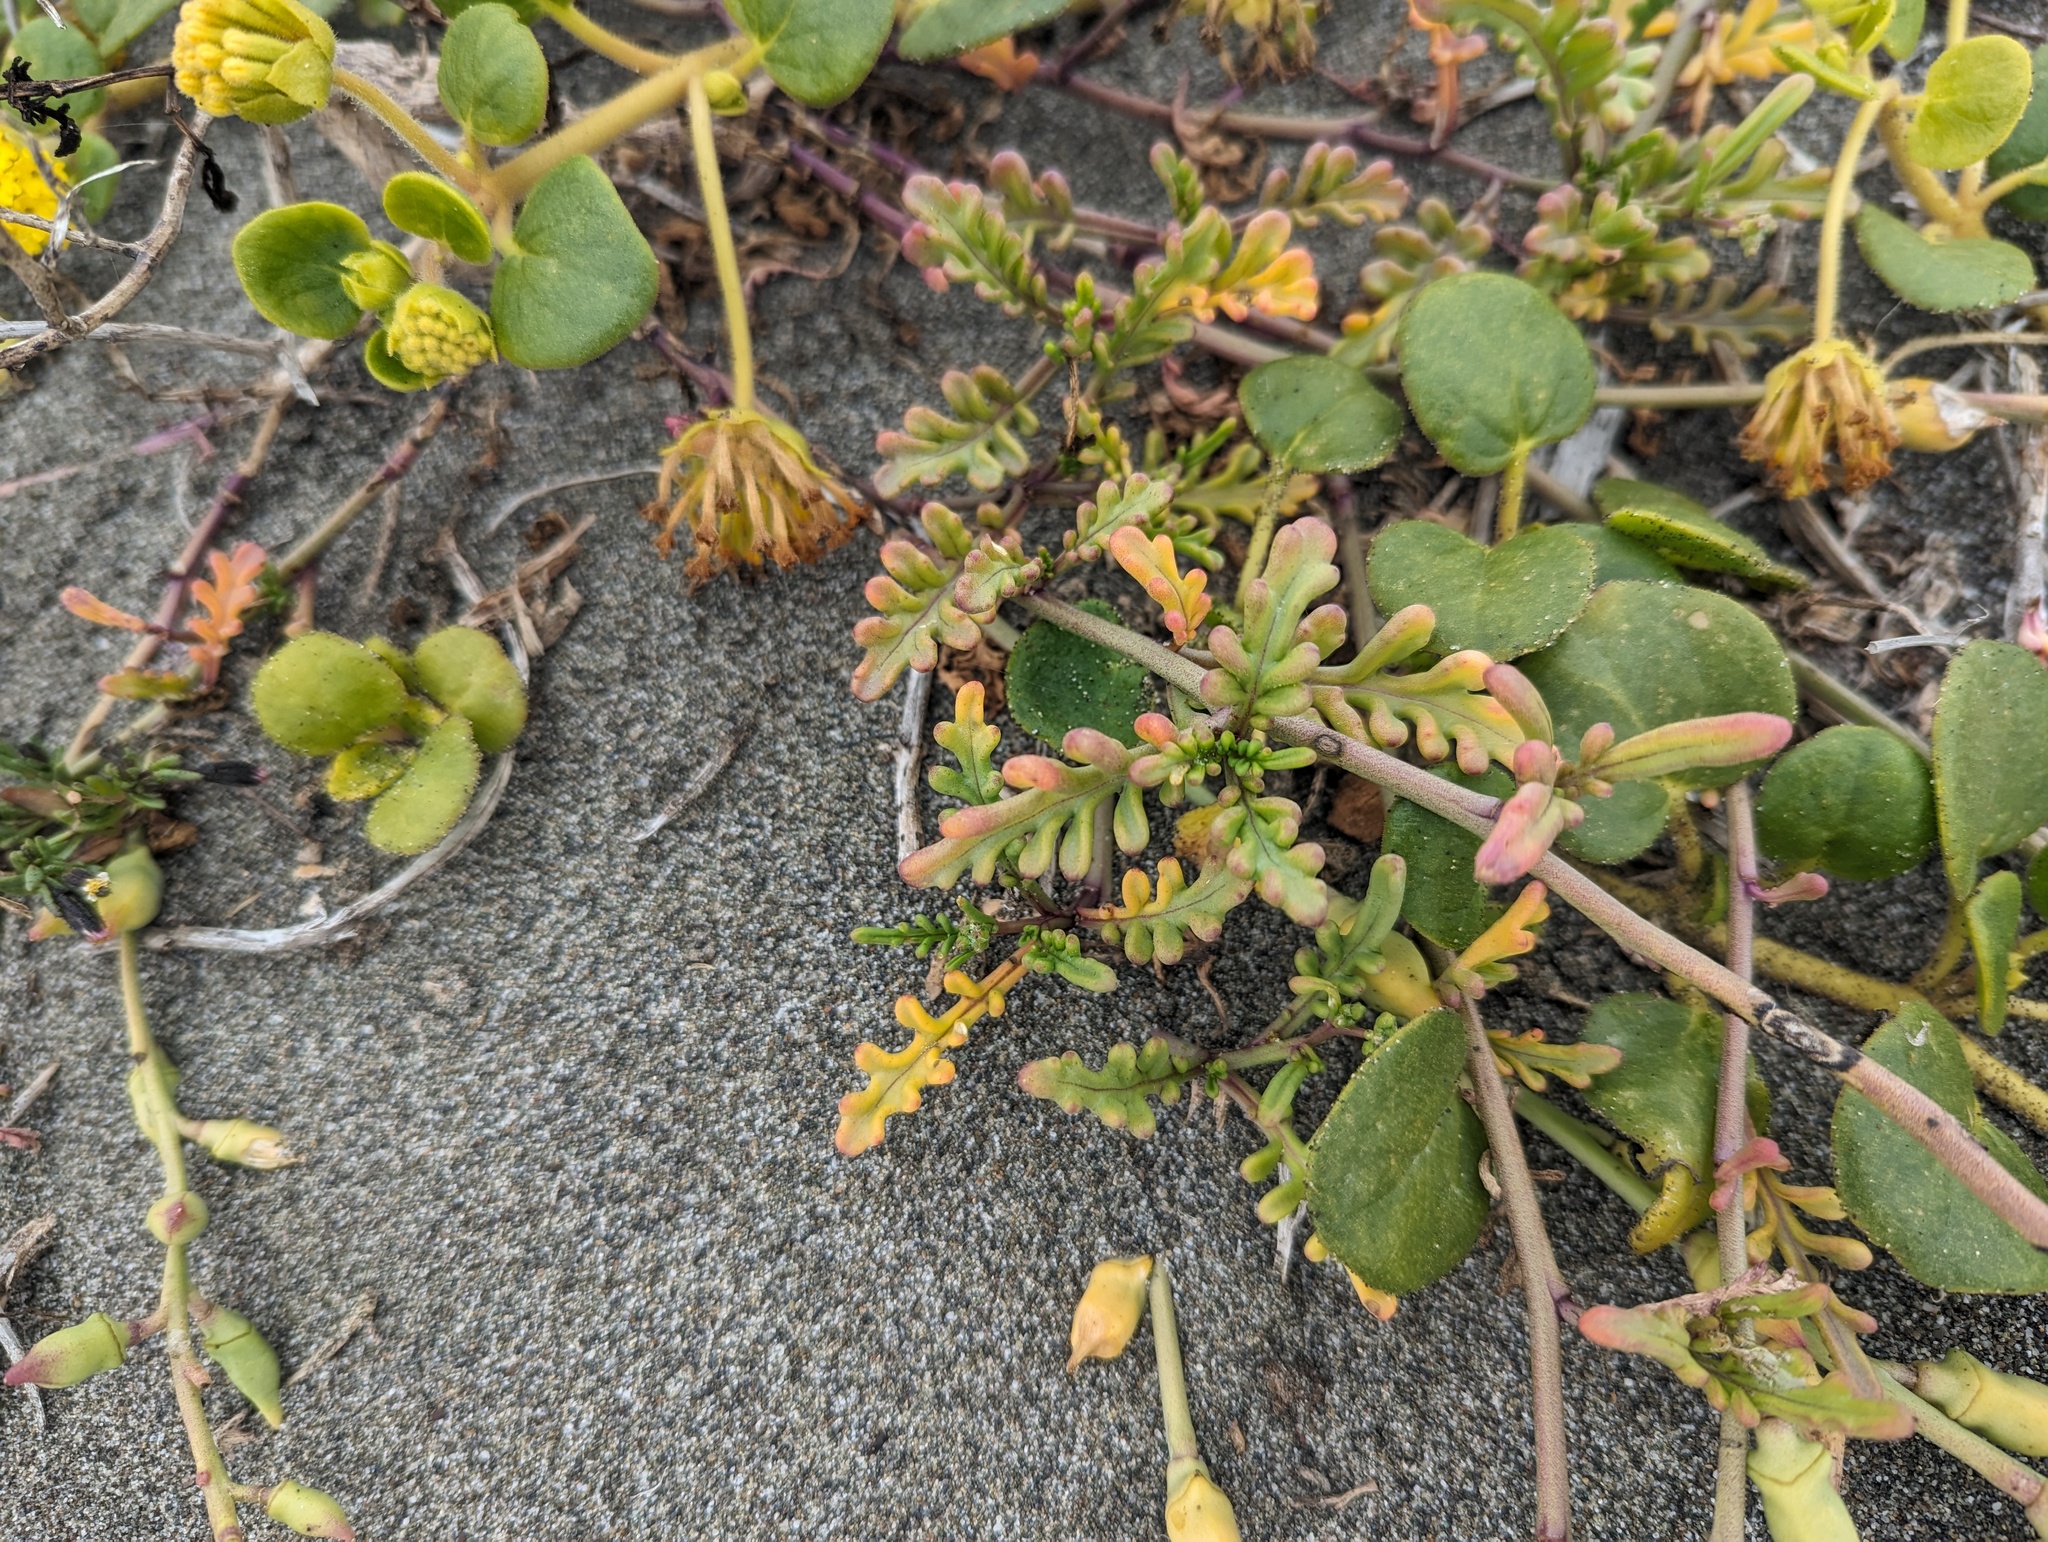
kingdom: Plantae
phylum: Tracheophyta
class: Magnoliopsida
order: Brassicales
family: Brassicaceae
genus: Cakile
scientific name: Cakile maritima
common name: Sea rocket
